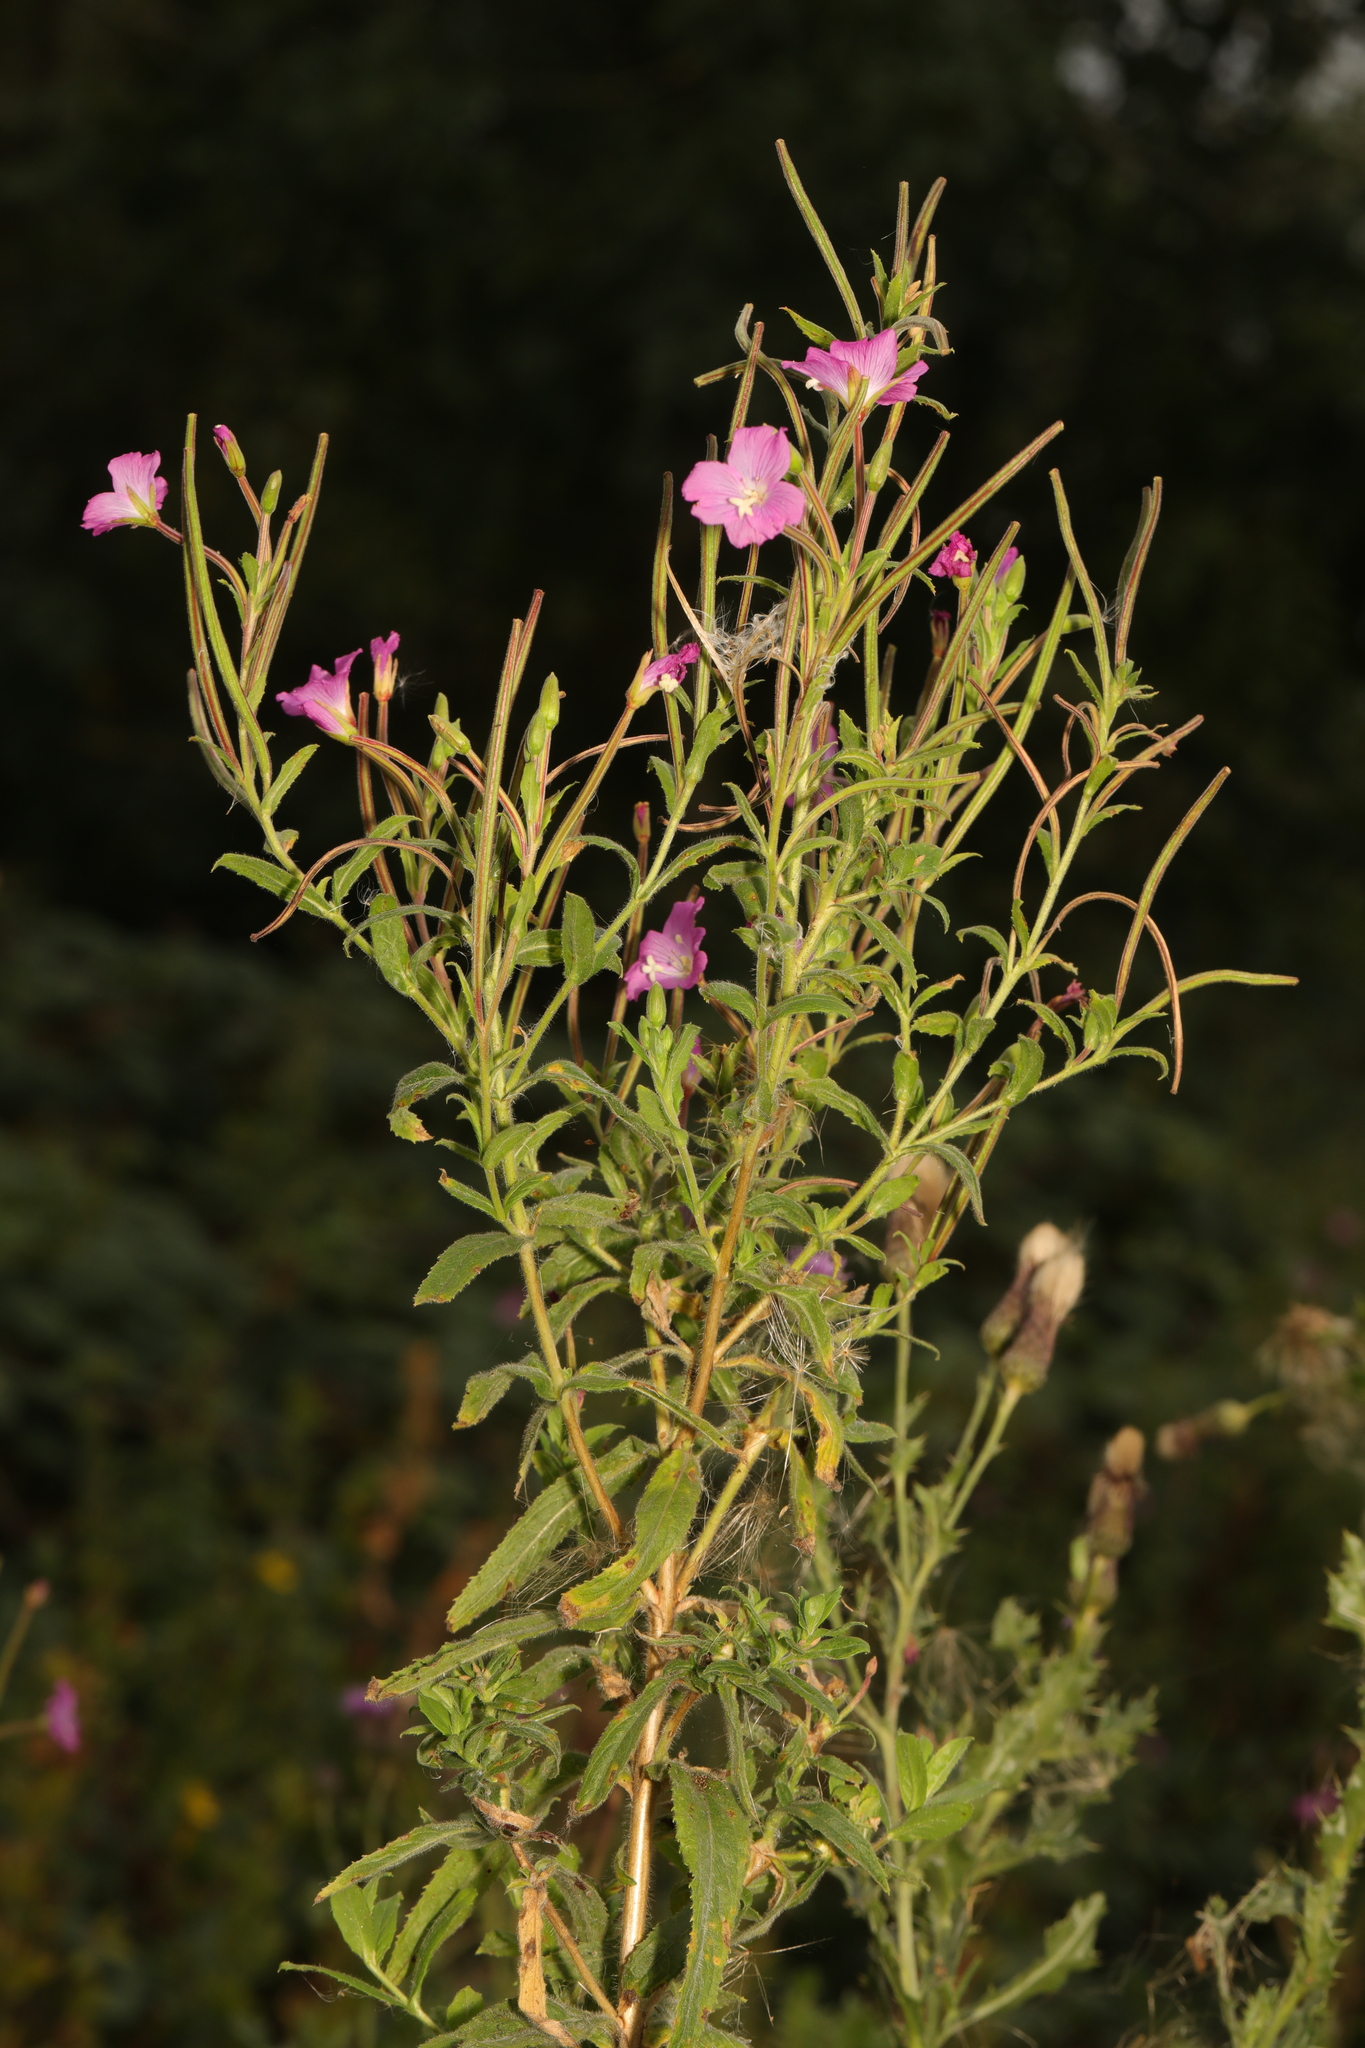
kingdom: Plantae
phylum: Tracheophyta
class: Magnoliopsida
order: Myrtales
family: Onagraceae
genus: Epilobium
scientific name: Epilobium hirsutum
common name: Great willowherb
